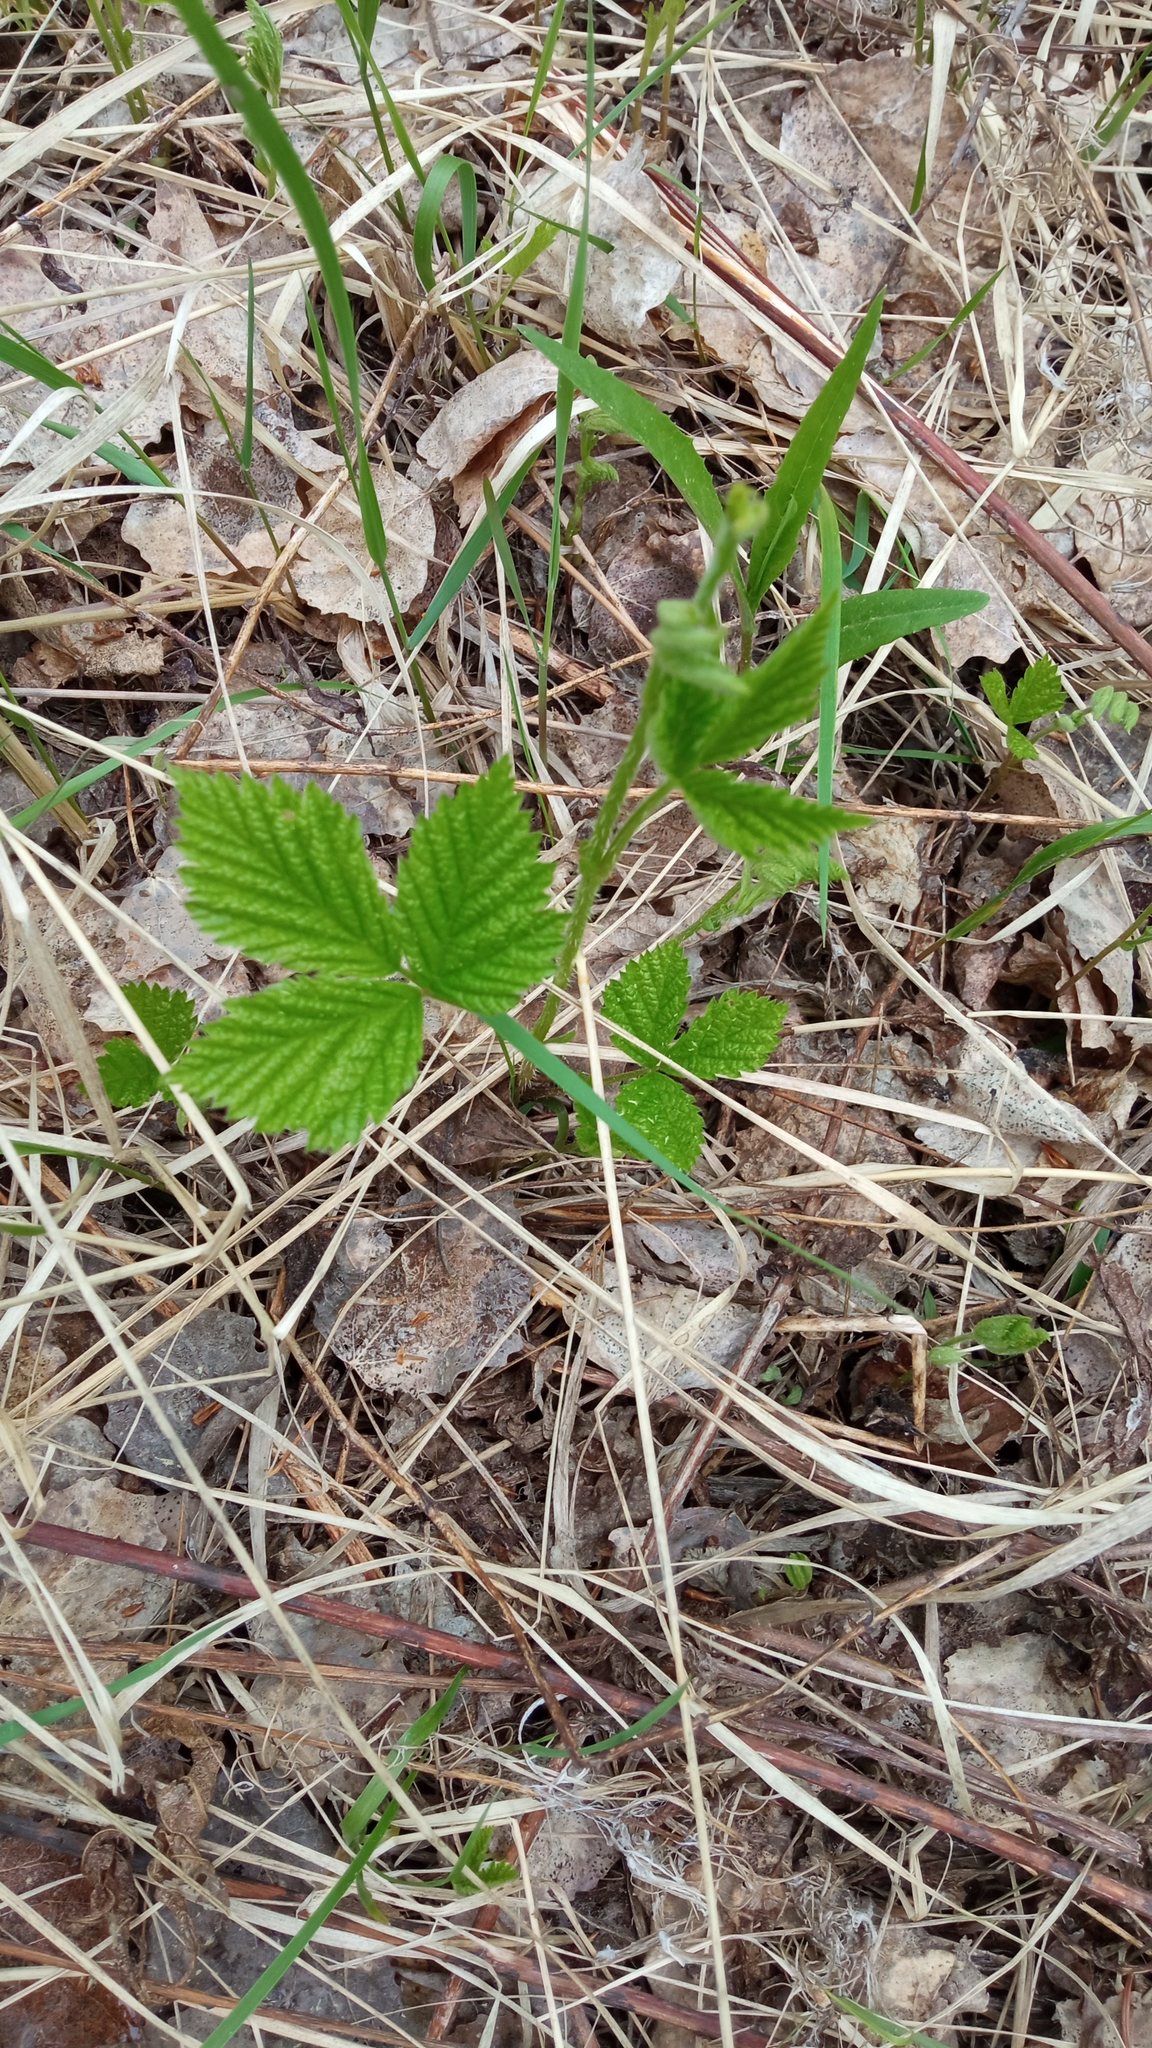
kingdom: Plantae
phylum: Tracheophyta
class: Magnoliopsida
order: Rosales
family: Rosaceae
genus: Rubus
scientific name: Rubus saxatilis
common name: Stone bramble
